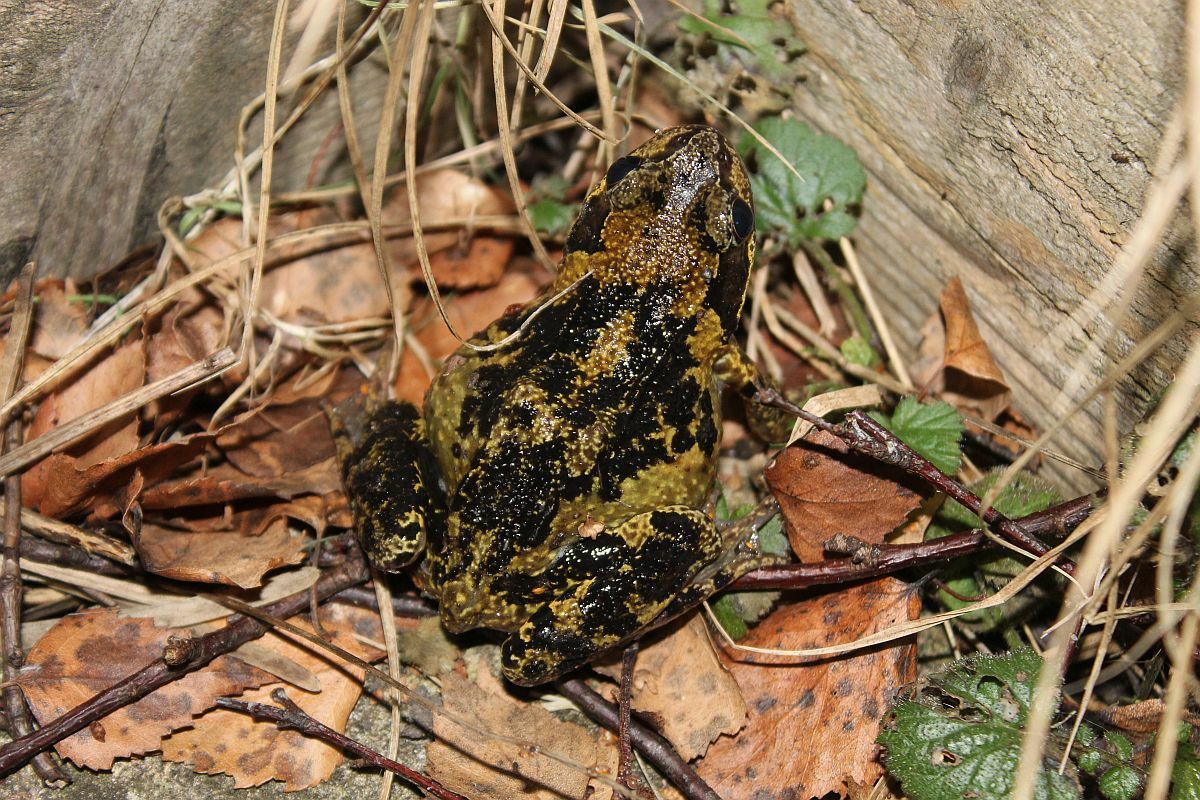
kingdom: Animalia
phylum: Chordata
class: Amphibia
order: Anura
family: Ranidae
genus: Rana
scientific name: Rana temporaria
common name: Common frog
